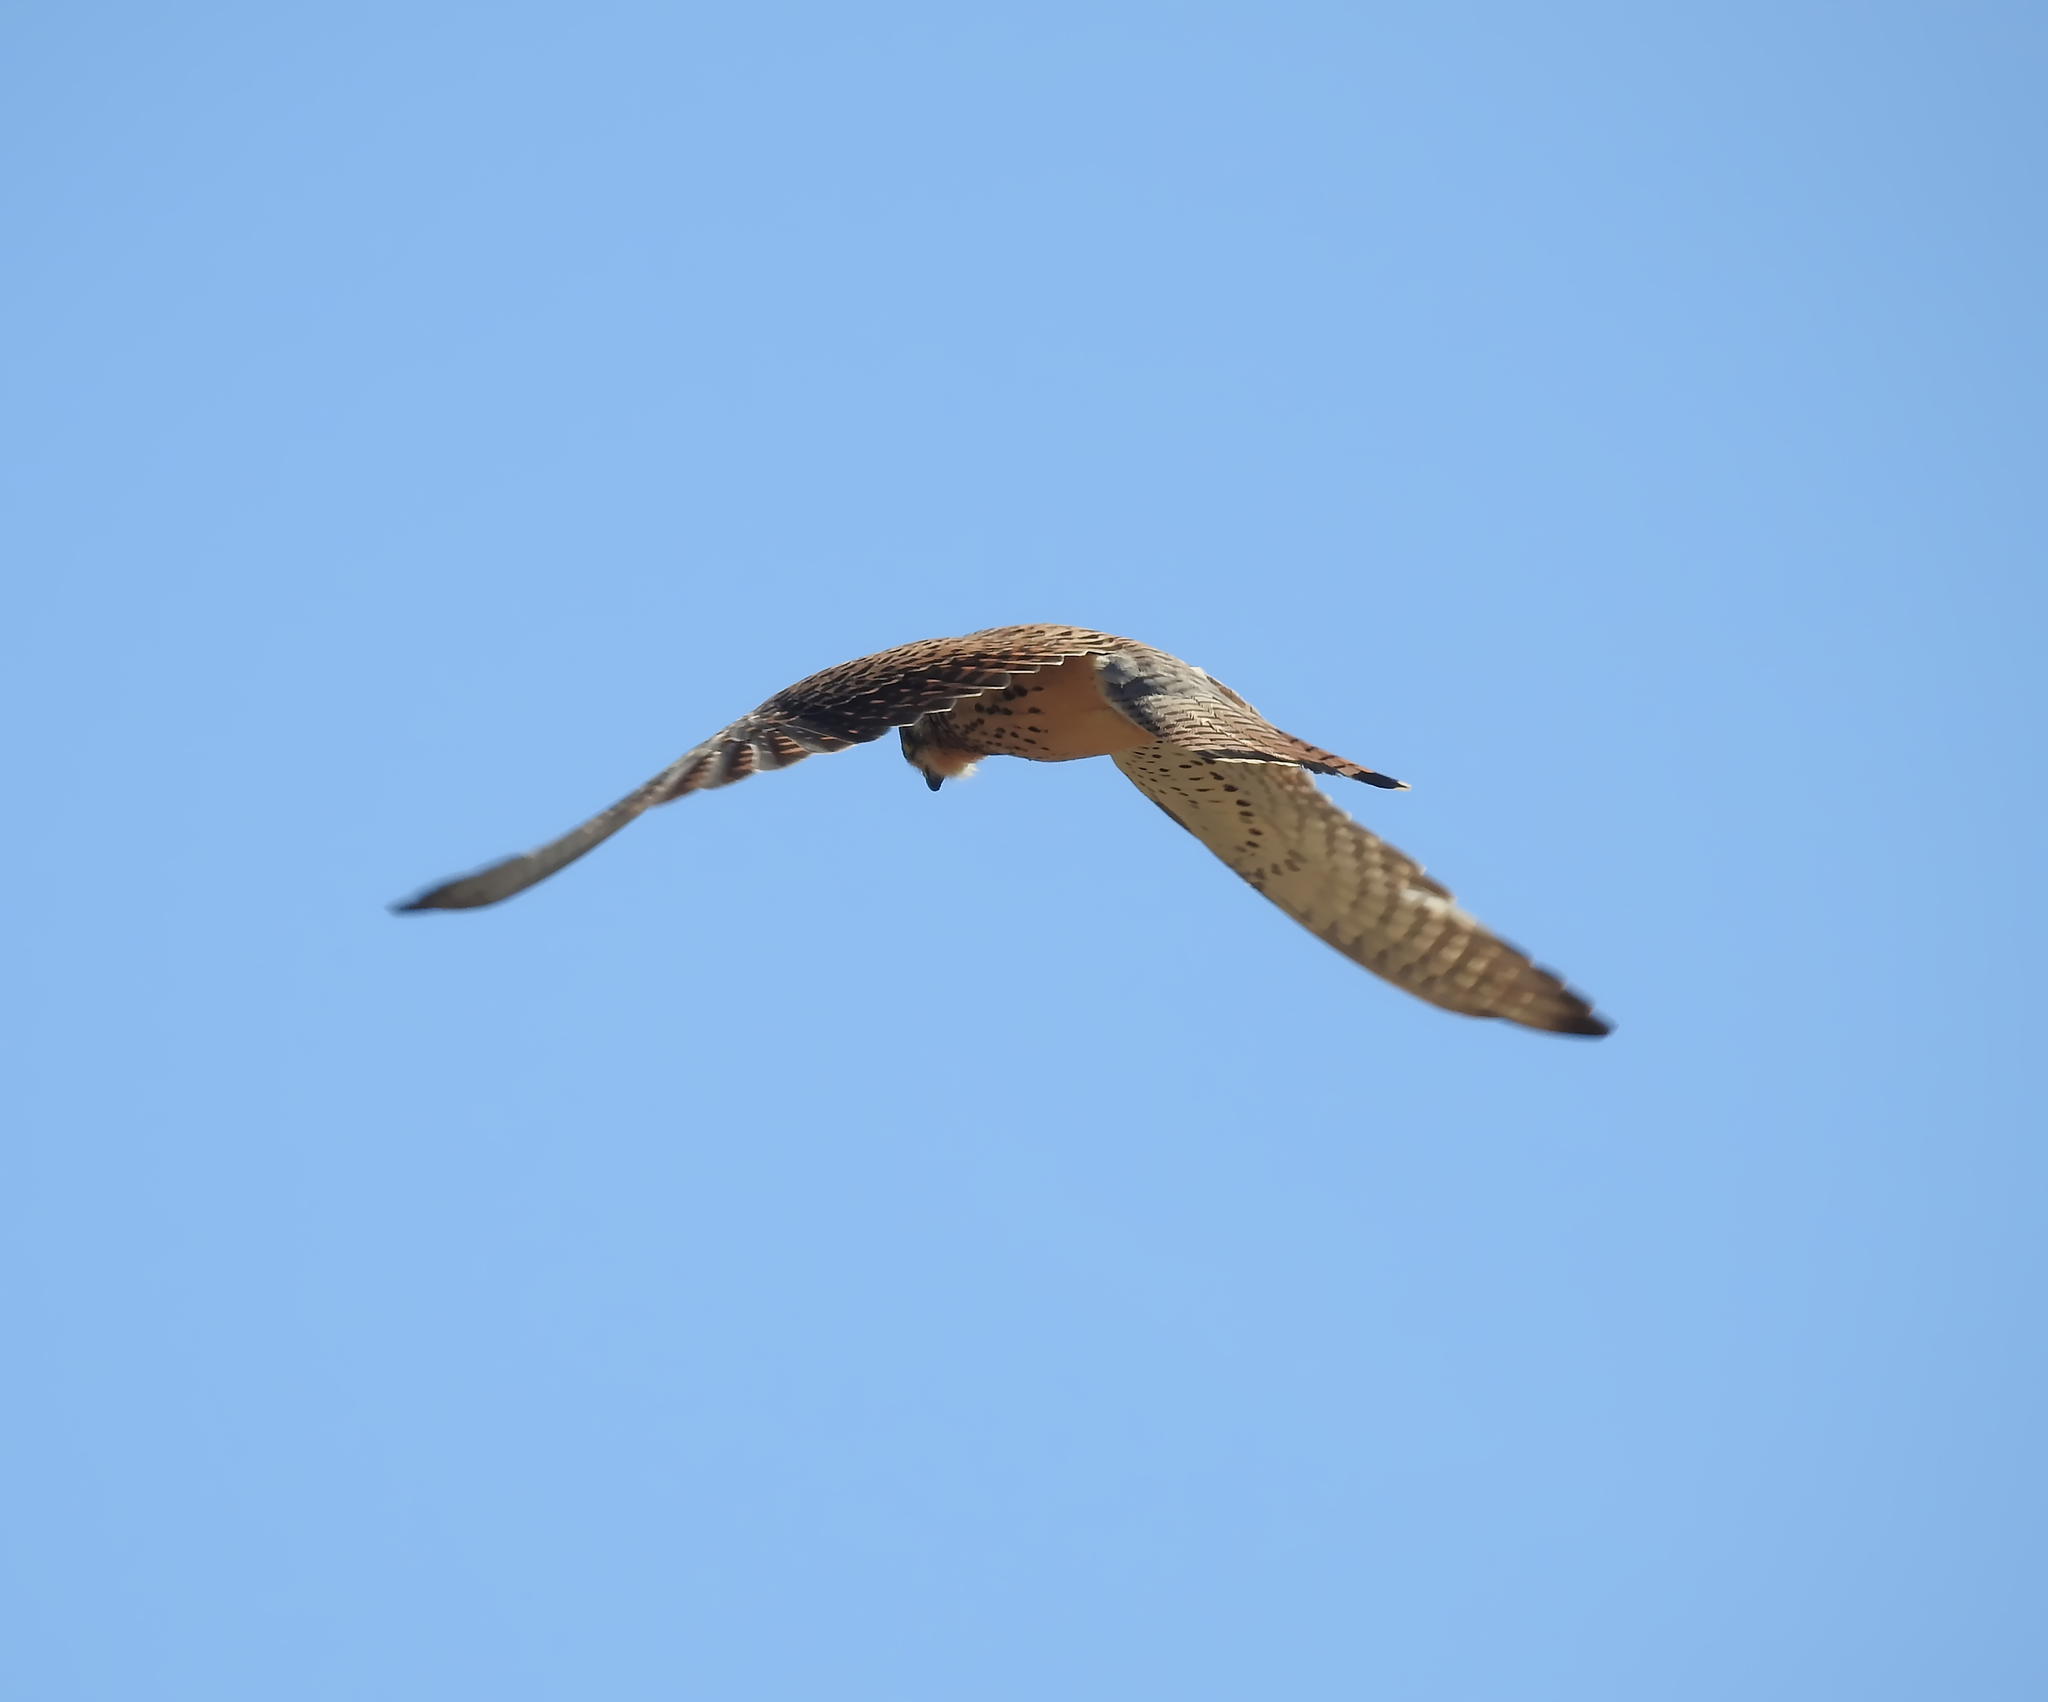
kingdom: Animalia
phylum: Chordata
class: Aves
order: Falconiformes
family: Falconidae
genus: Falco
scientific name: Falco tinnunculus
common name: Common kestrel
